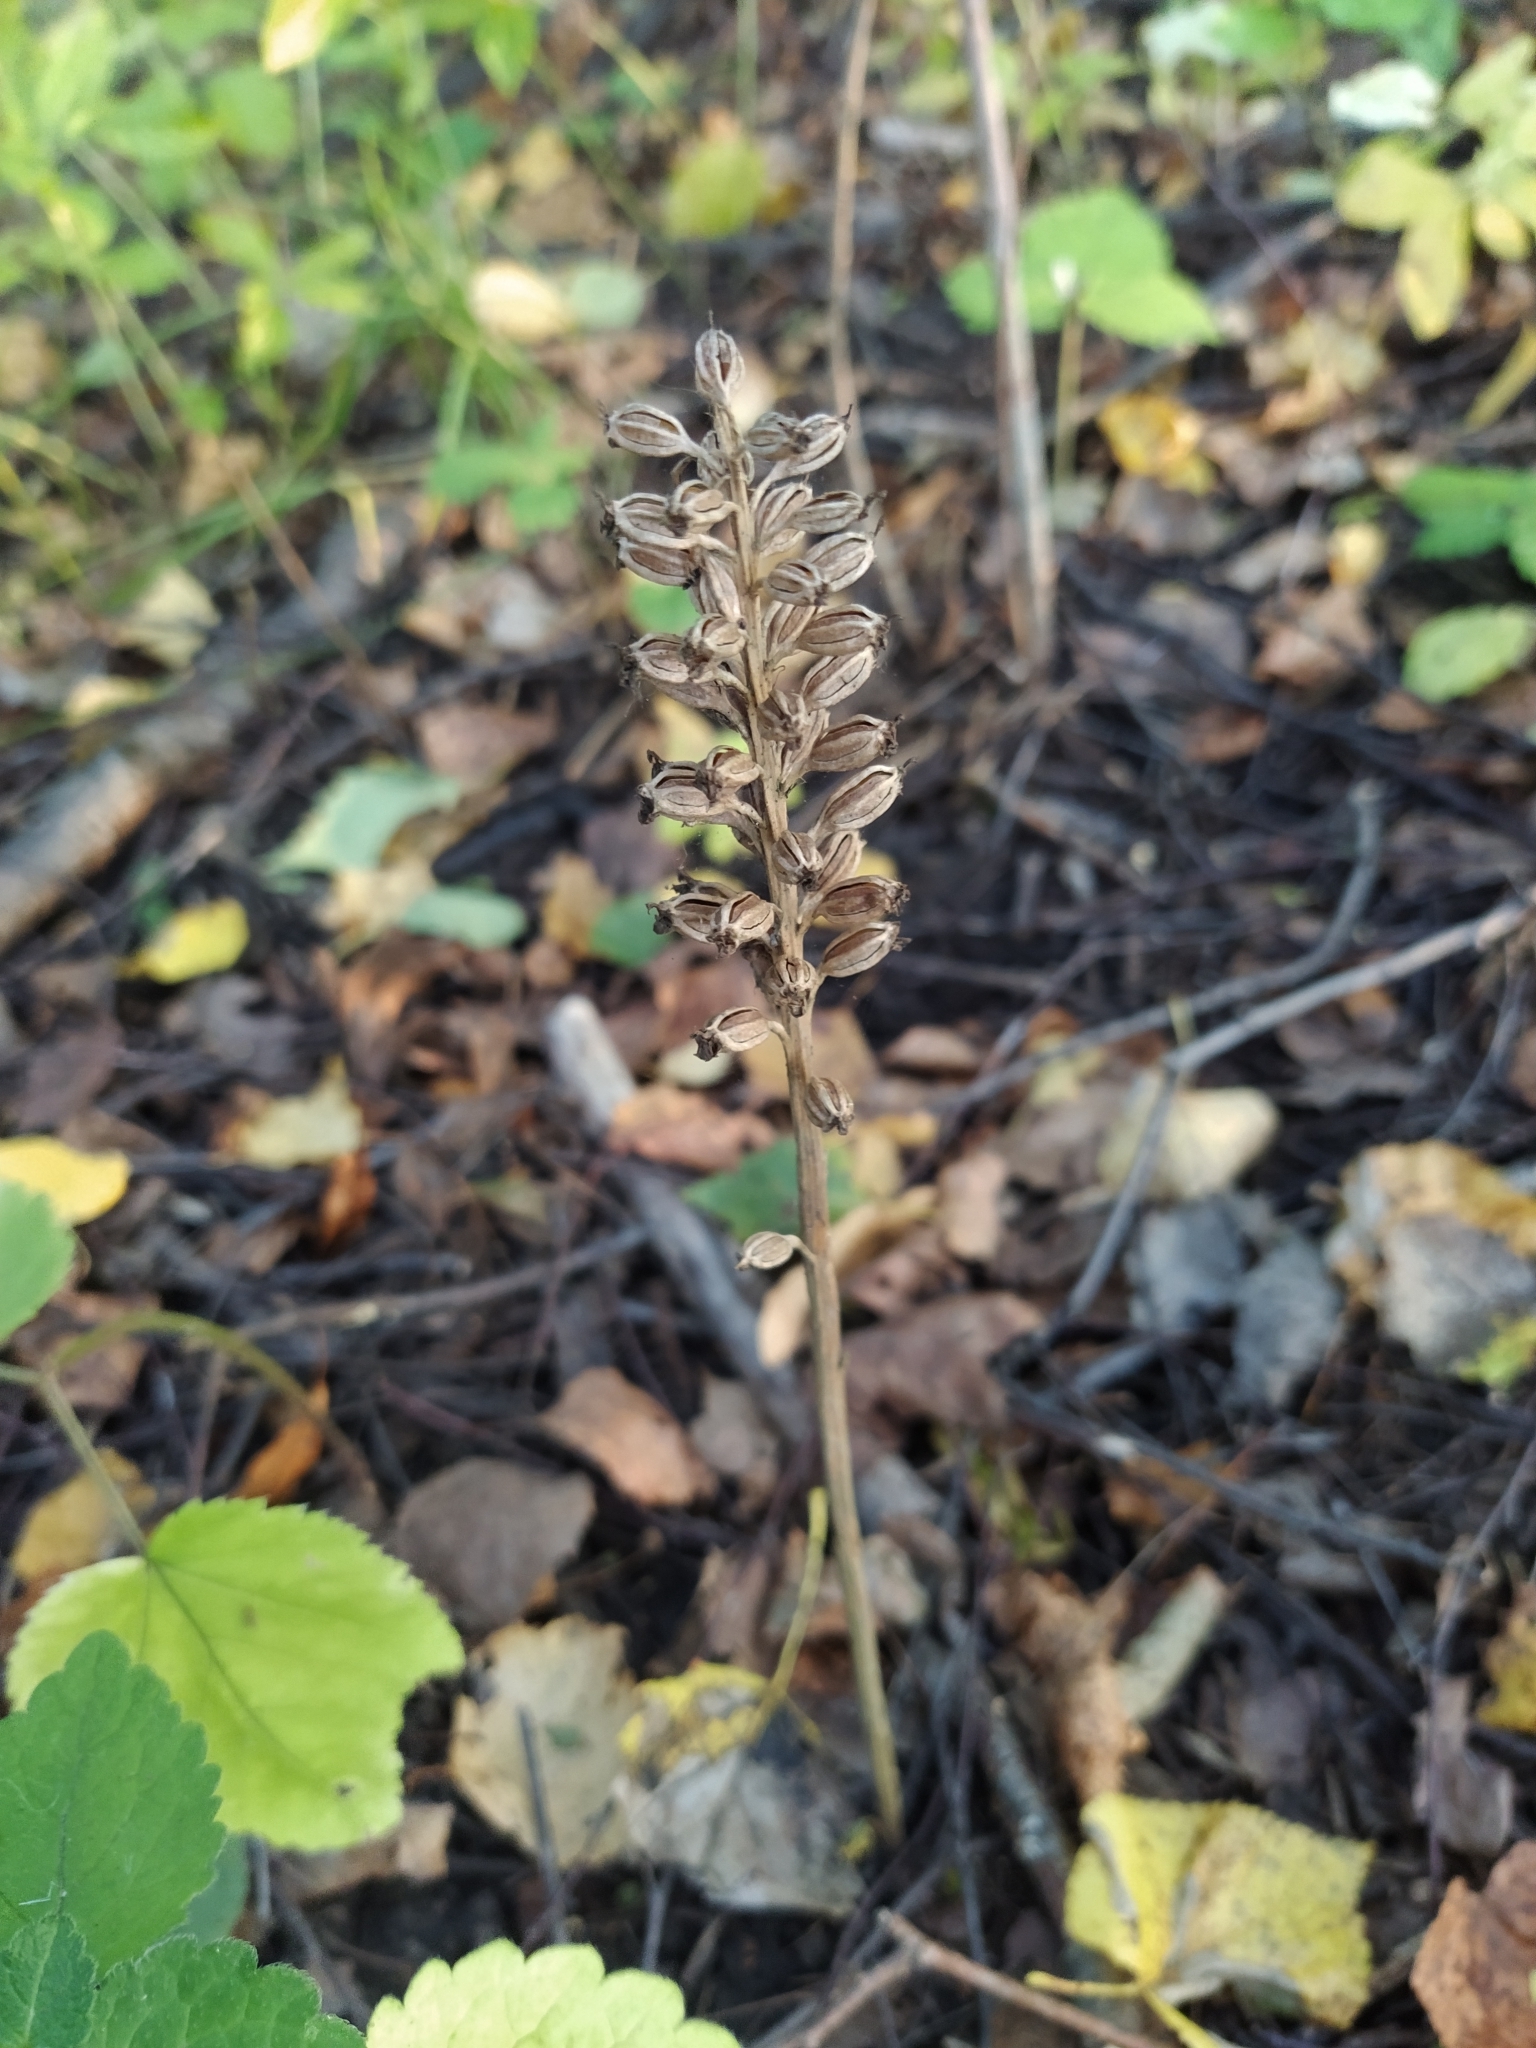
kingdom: Plantae
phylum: Tracheophyta
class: Liliopsida
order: Asparagales
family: Orchidaceae
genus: Neottia
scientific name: Neottia nidus-avis
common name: Bird's-nest orchid
